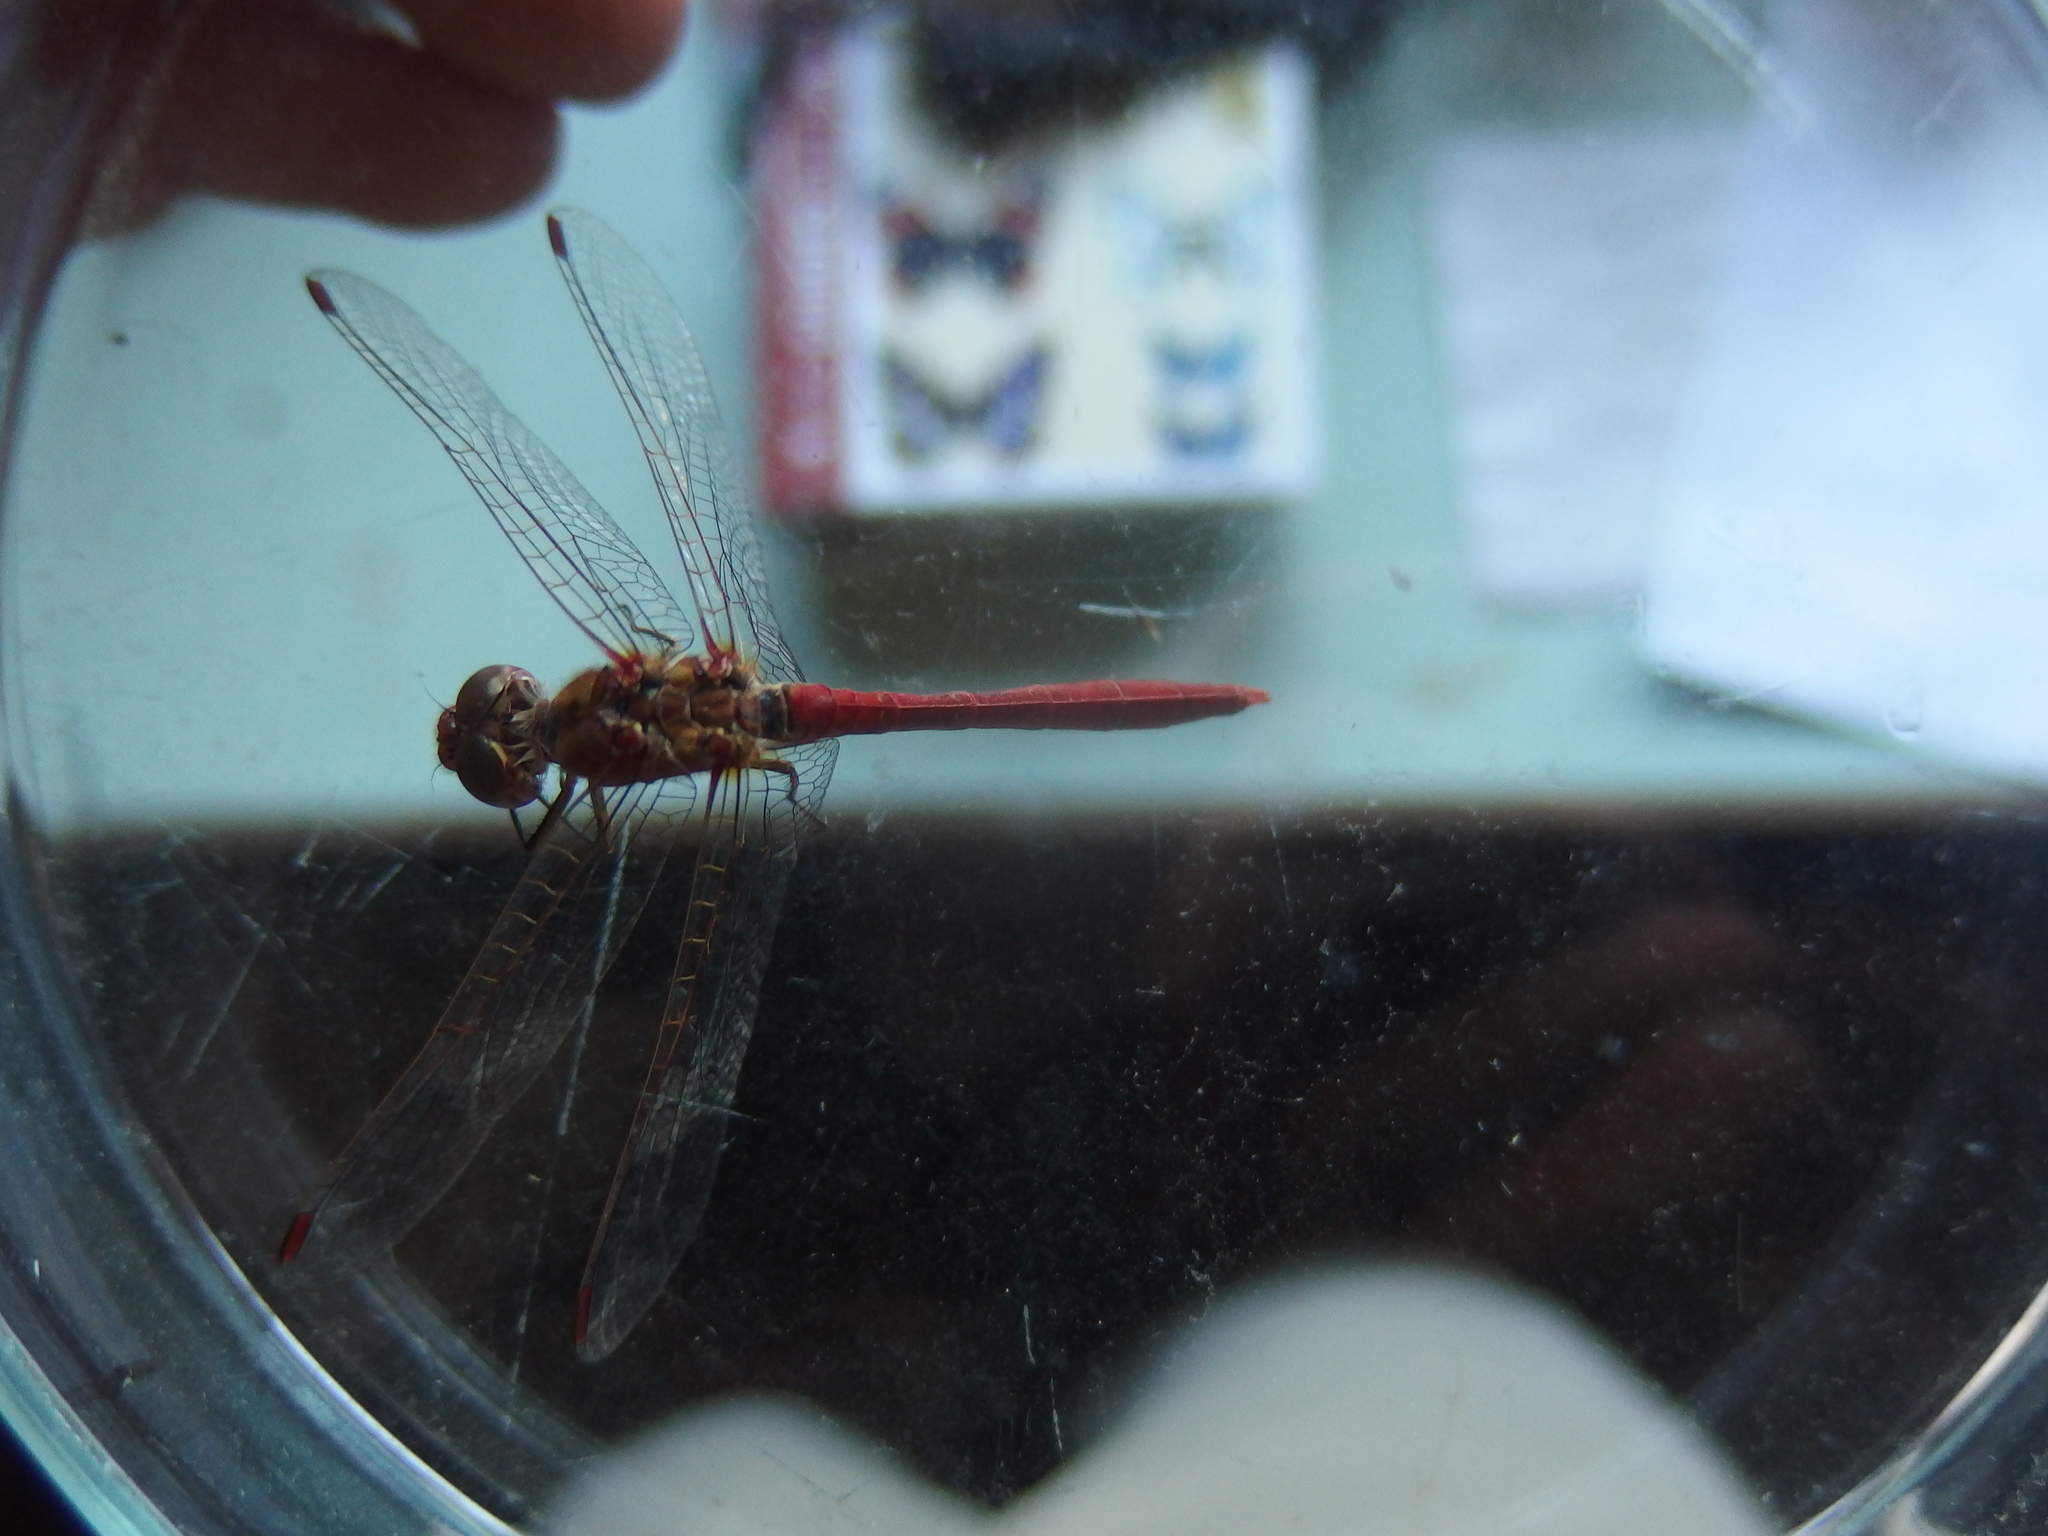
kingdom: Animalia
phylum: Arthropoda
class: Insecta
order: Odonata
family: Libellulidae
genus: Sympetrum
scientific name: Sympetrum meridionale
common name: Southern darter
